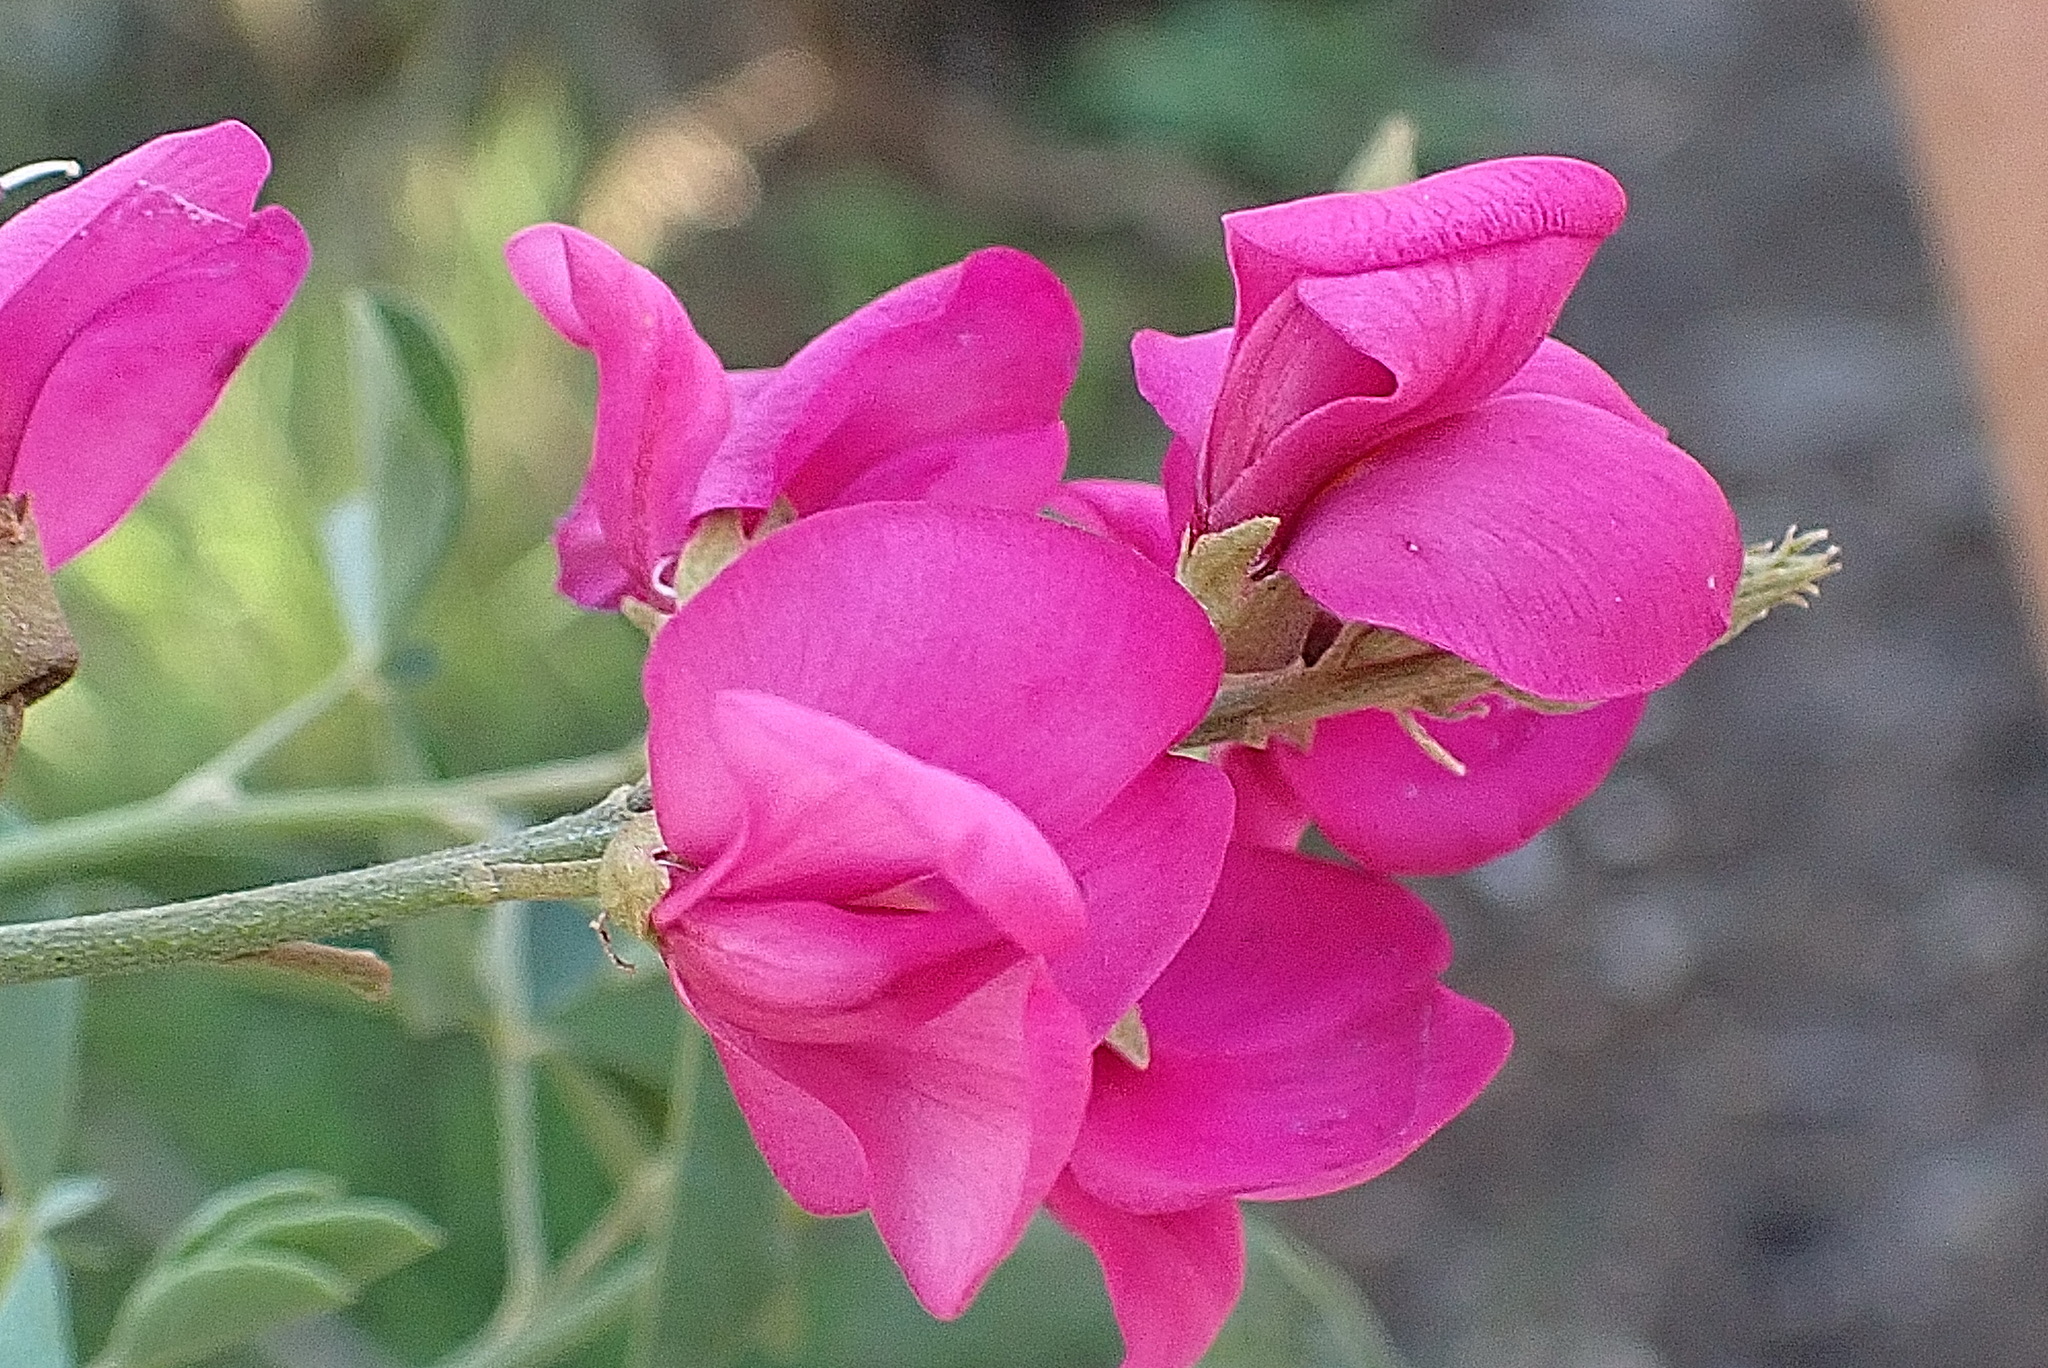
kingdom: Plantae
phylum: Tracheophyta
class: Magnoliopsida
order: Fabales
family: Fabaceae
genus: Hypocalyptus
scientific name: Hypocalyptus coluteoides
